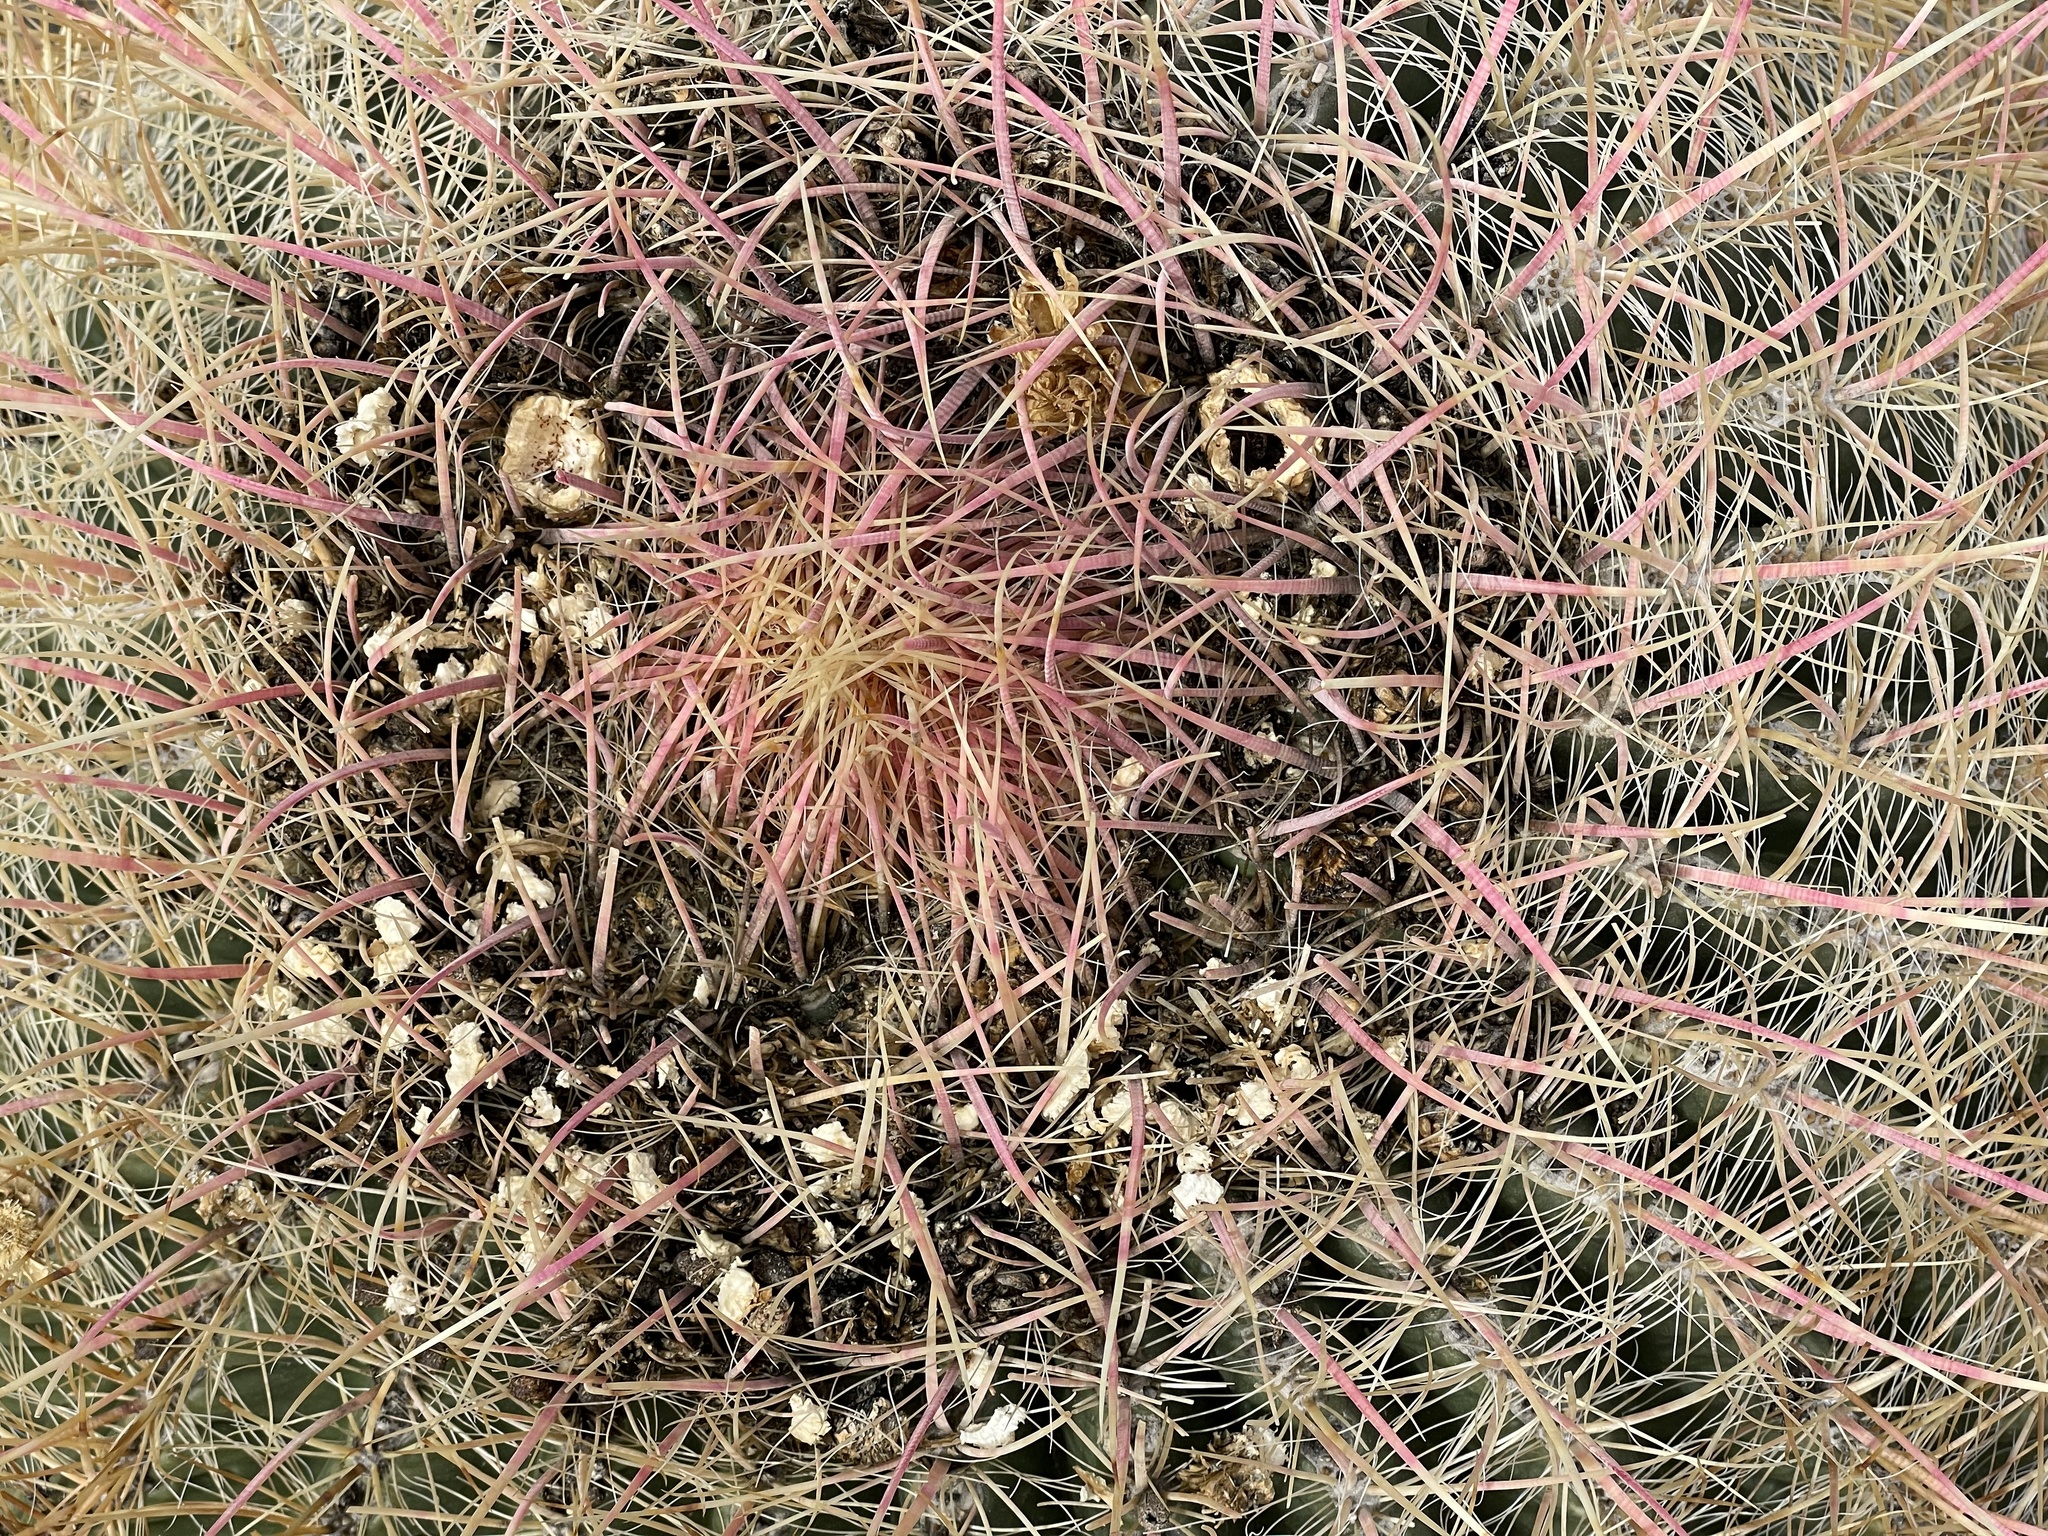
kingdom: Plantae
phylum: Tracheophyta
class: Magnoliopsida
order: Caryophyllales
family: Cactaceae
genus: Ferocactus
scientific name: Ferocactus cylindraceus
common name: California barrel cactus
